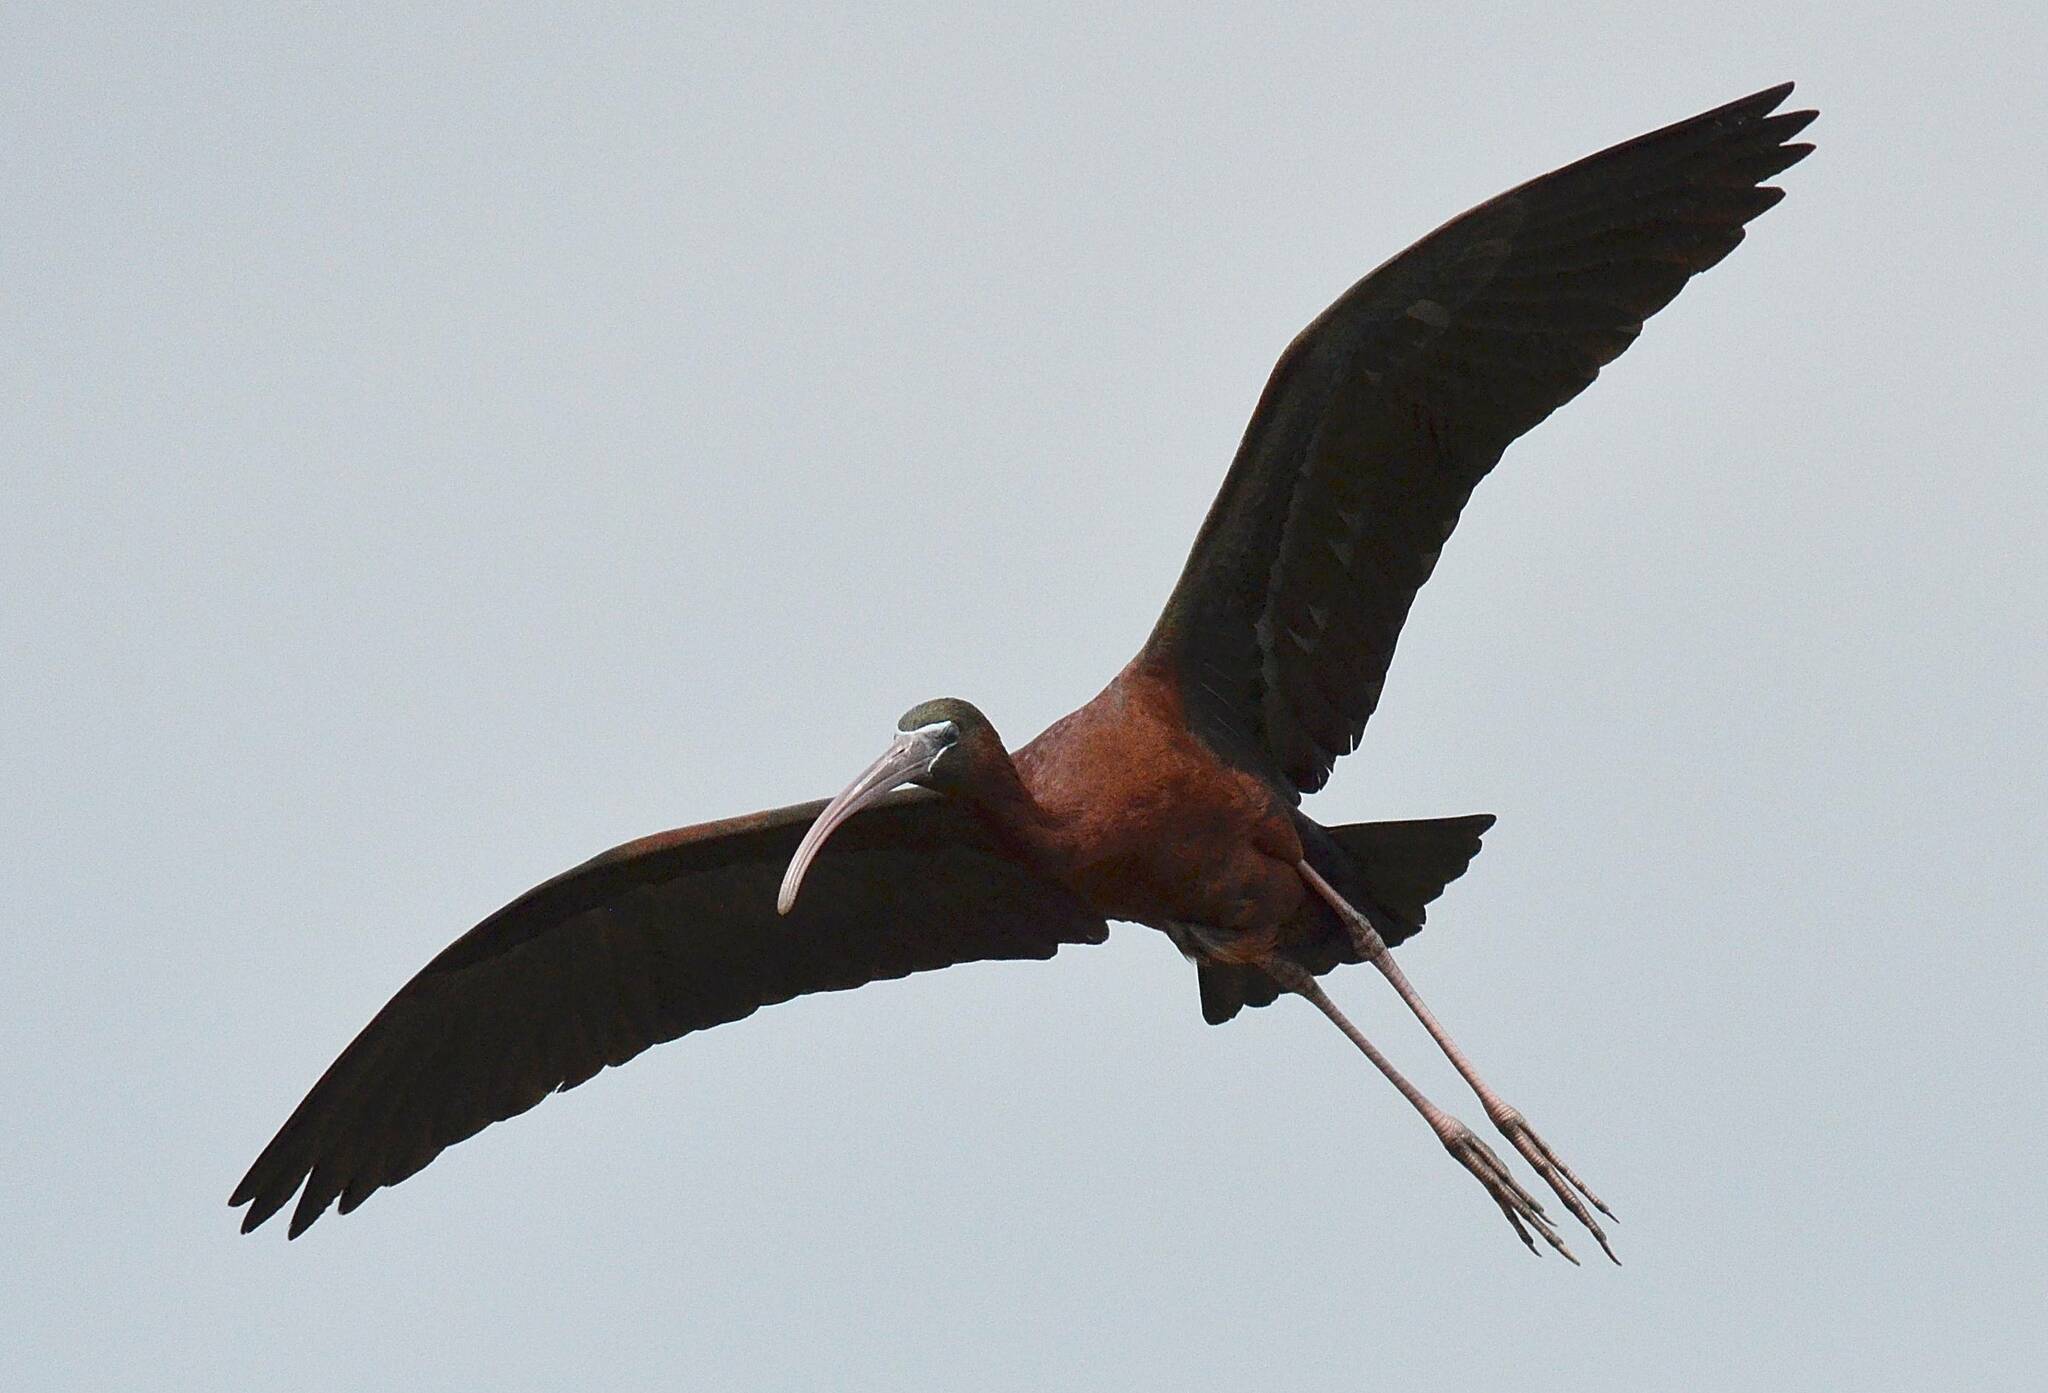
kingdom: Animalia
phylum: Chordata
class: Aves
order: Pelecaniformes
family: Threskiornithidae
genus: Plegadis
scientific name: Plegadis falcinellus
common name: Glossy ibis
